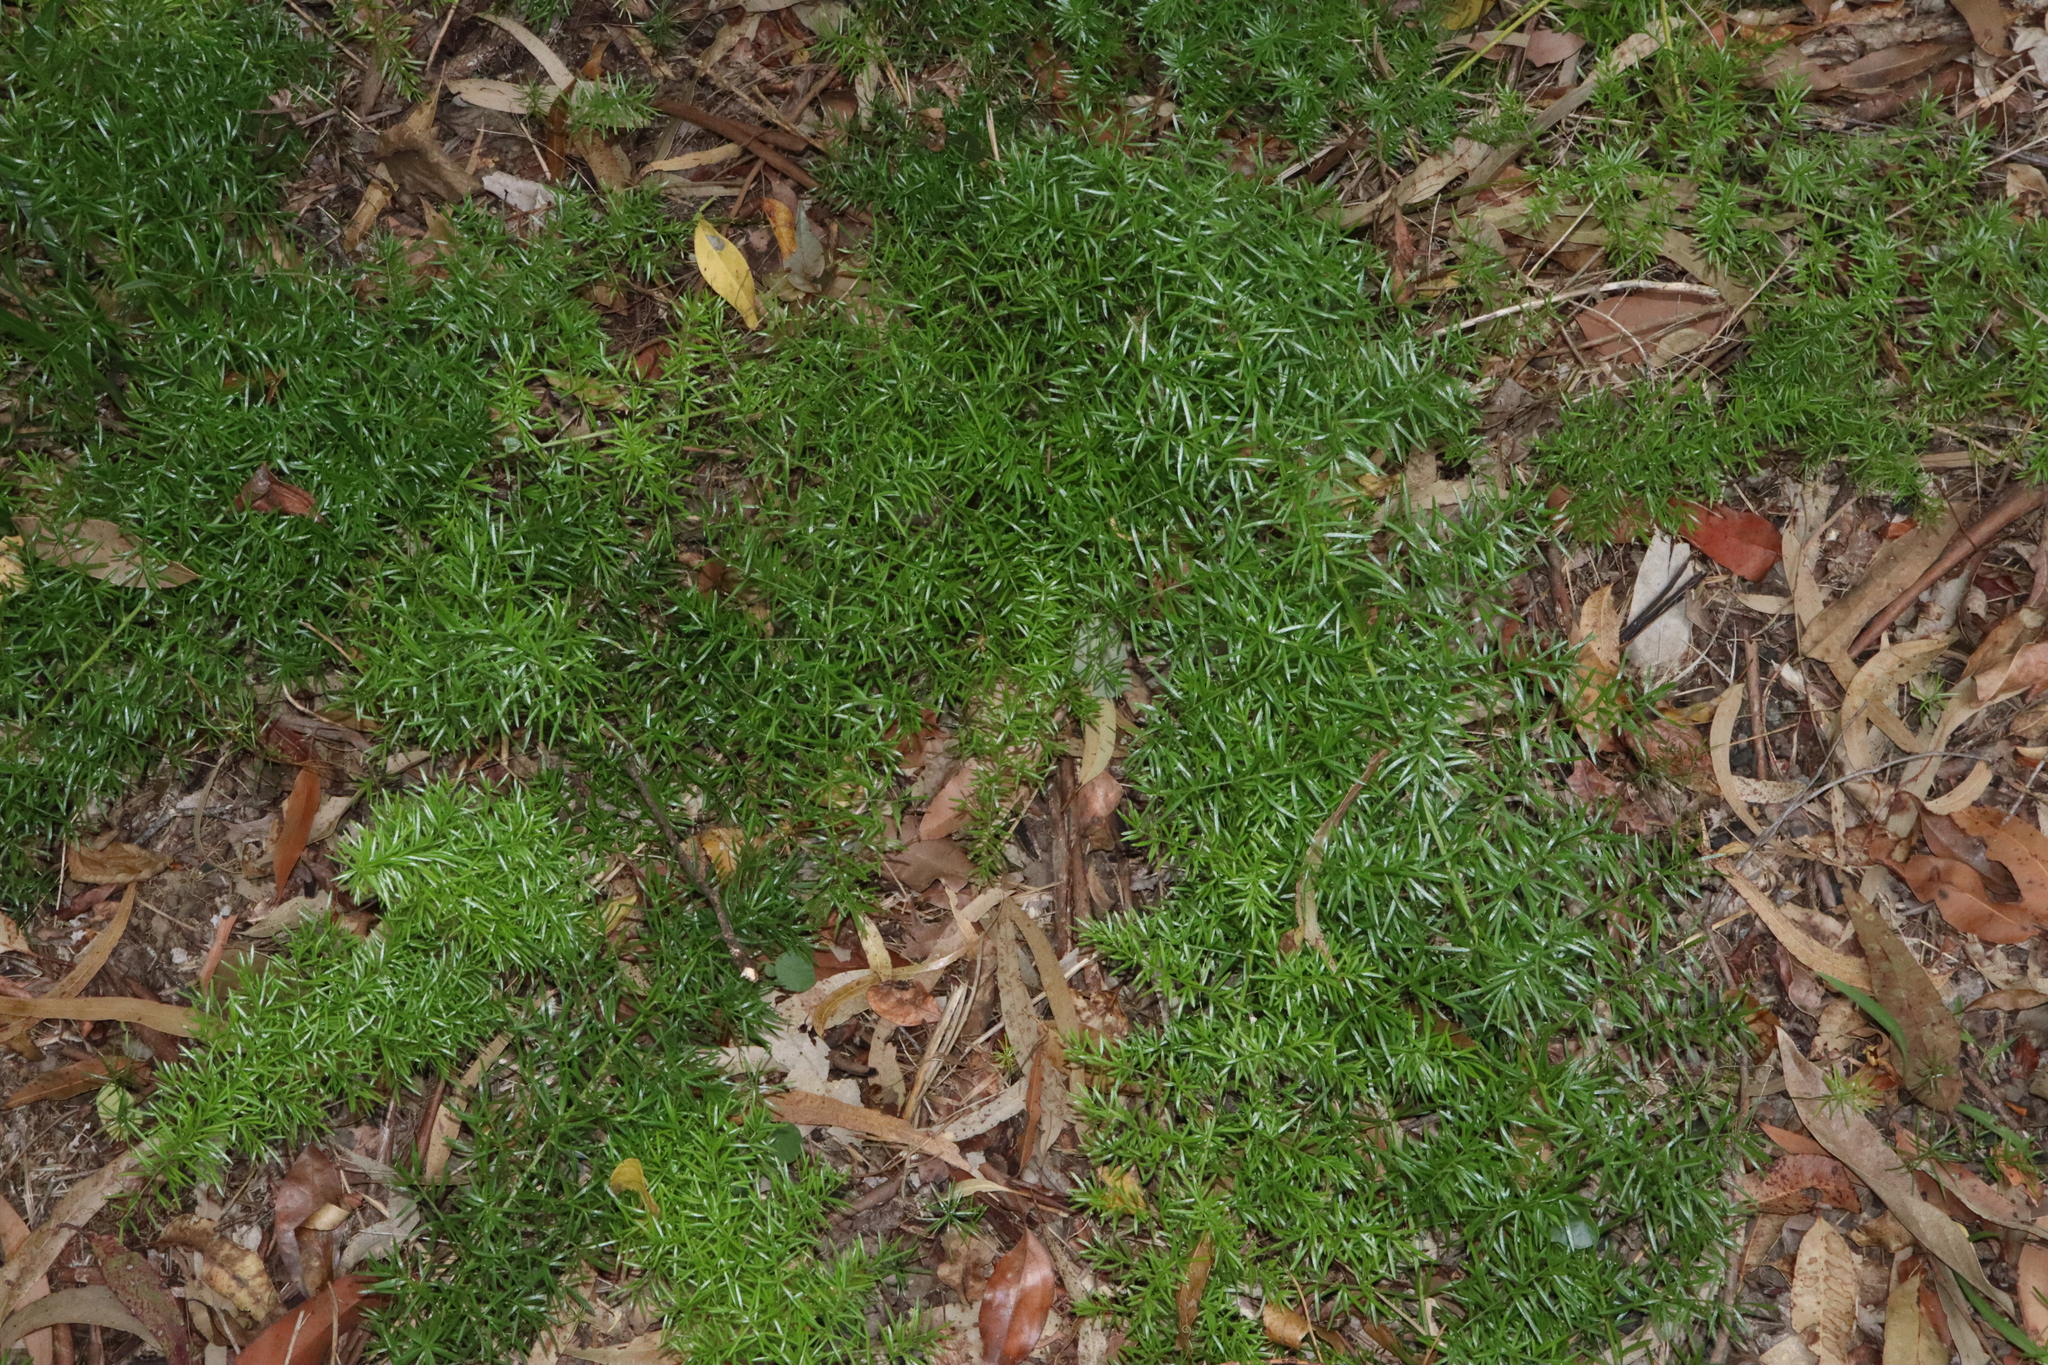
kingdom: Plantae
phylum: Tracheophyta
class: Liliopsida
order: Asparagales
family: Asparagaceae
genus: Asparagus
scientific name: Asparagus aethiopicus
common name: Sprenger's asparagus fern
